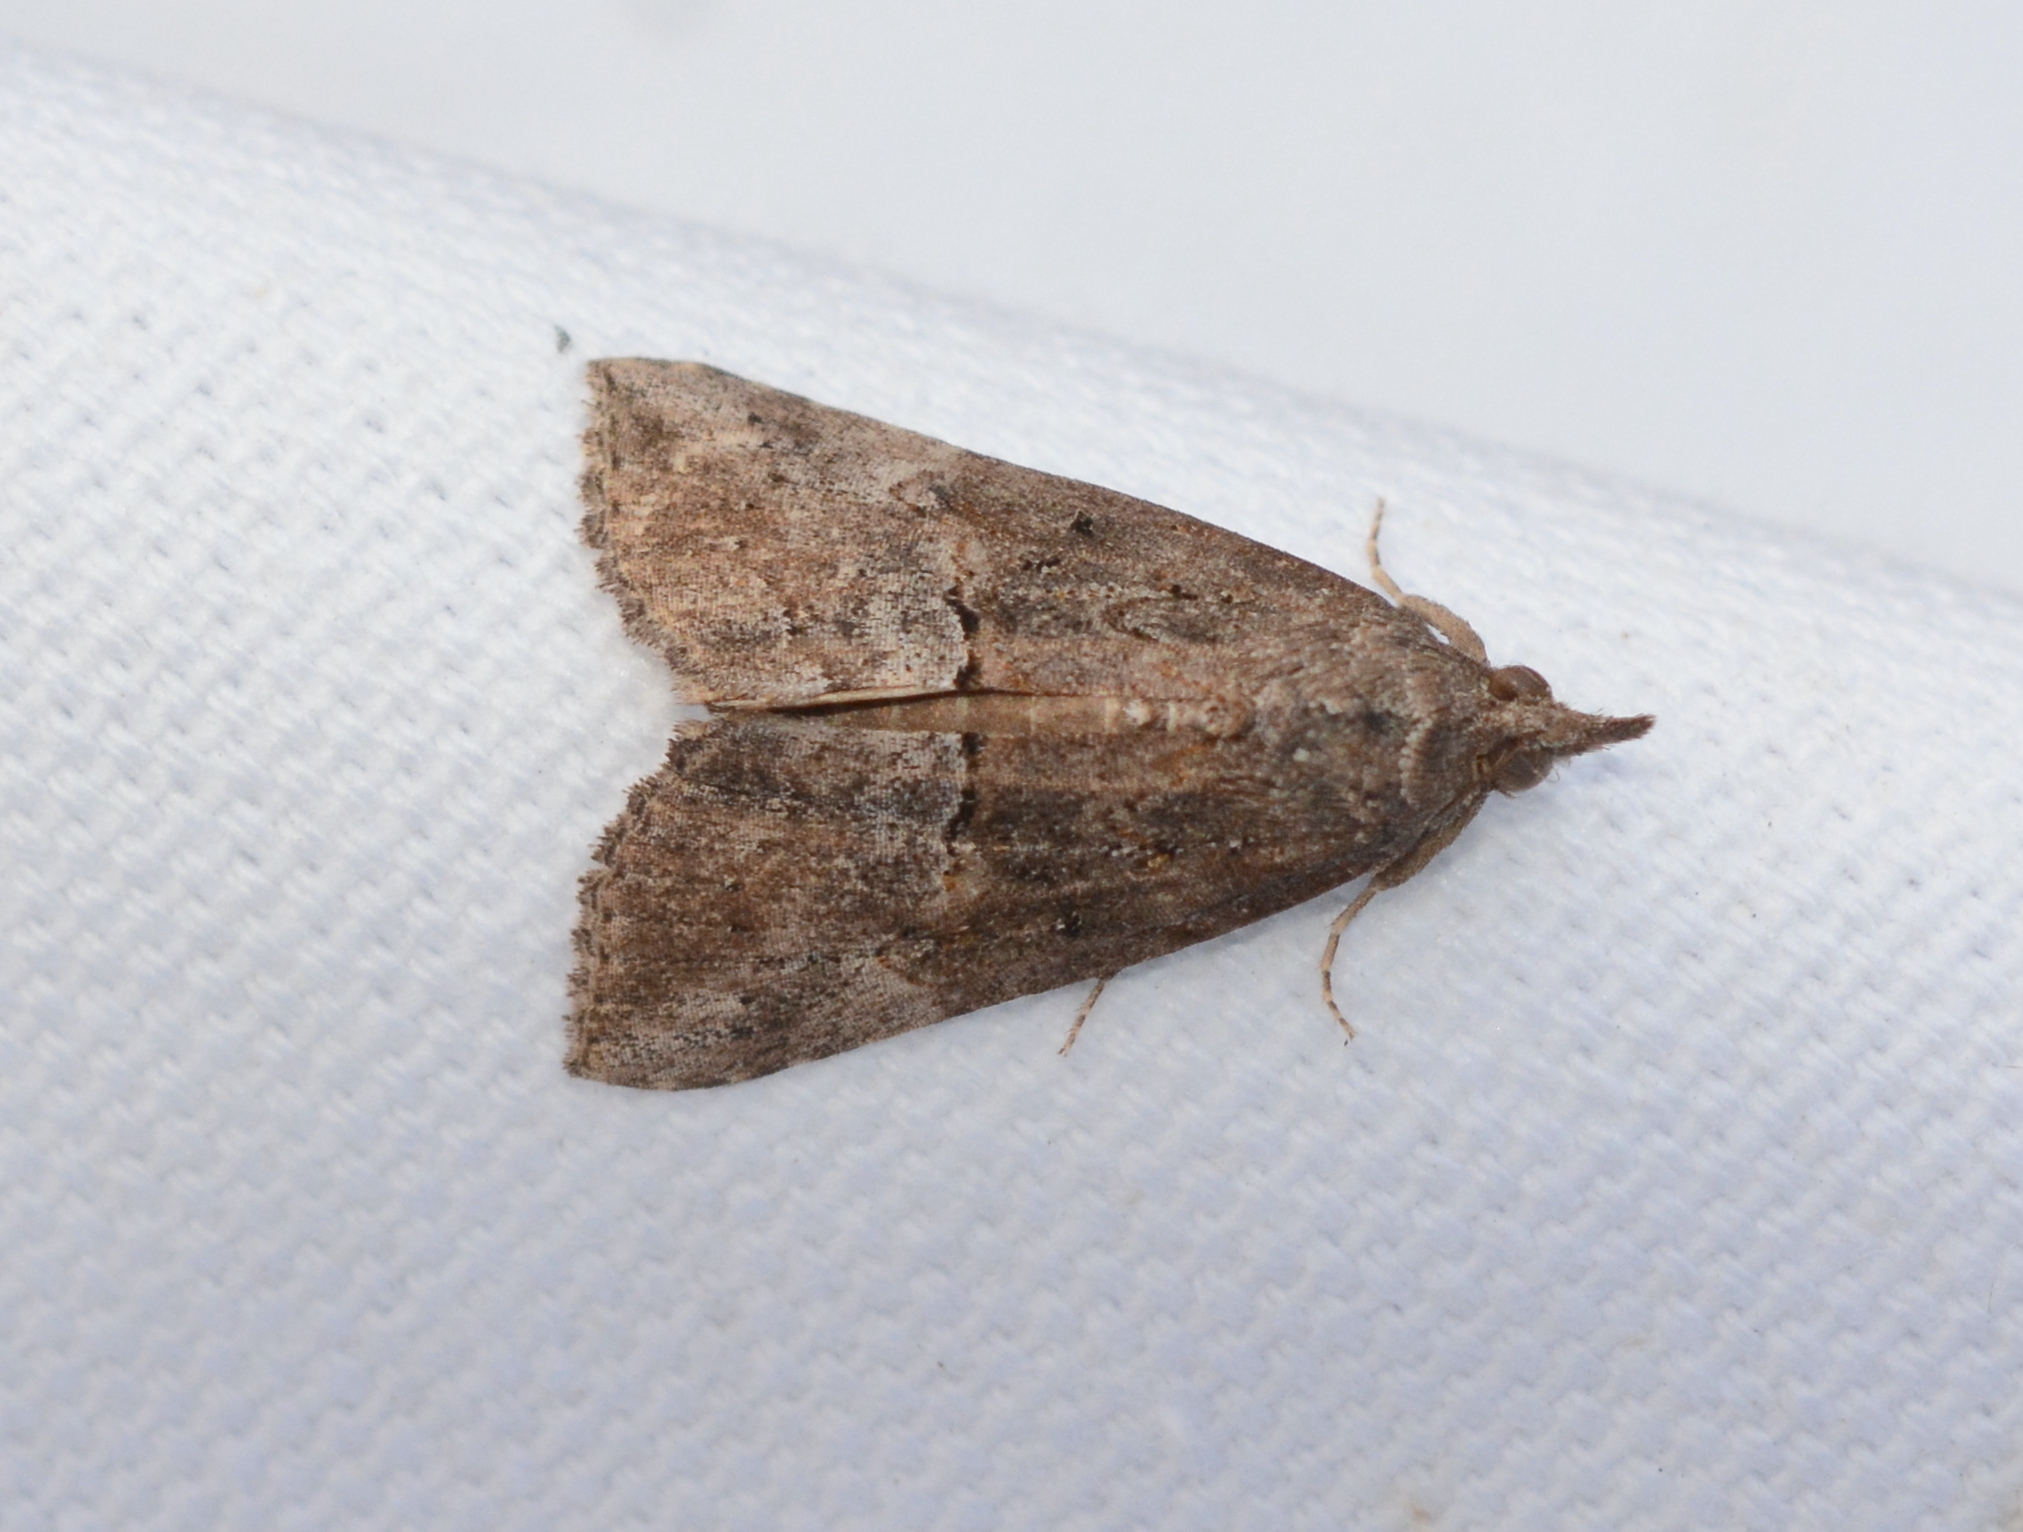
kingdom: Animalia
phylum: Arthropoda
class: Insecta
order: Lepidoptera
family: Erebidae
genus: Hypena
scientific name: Hypena scabra
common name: Green cloverworm
